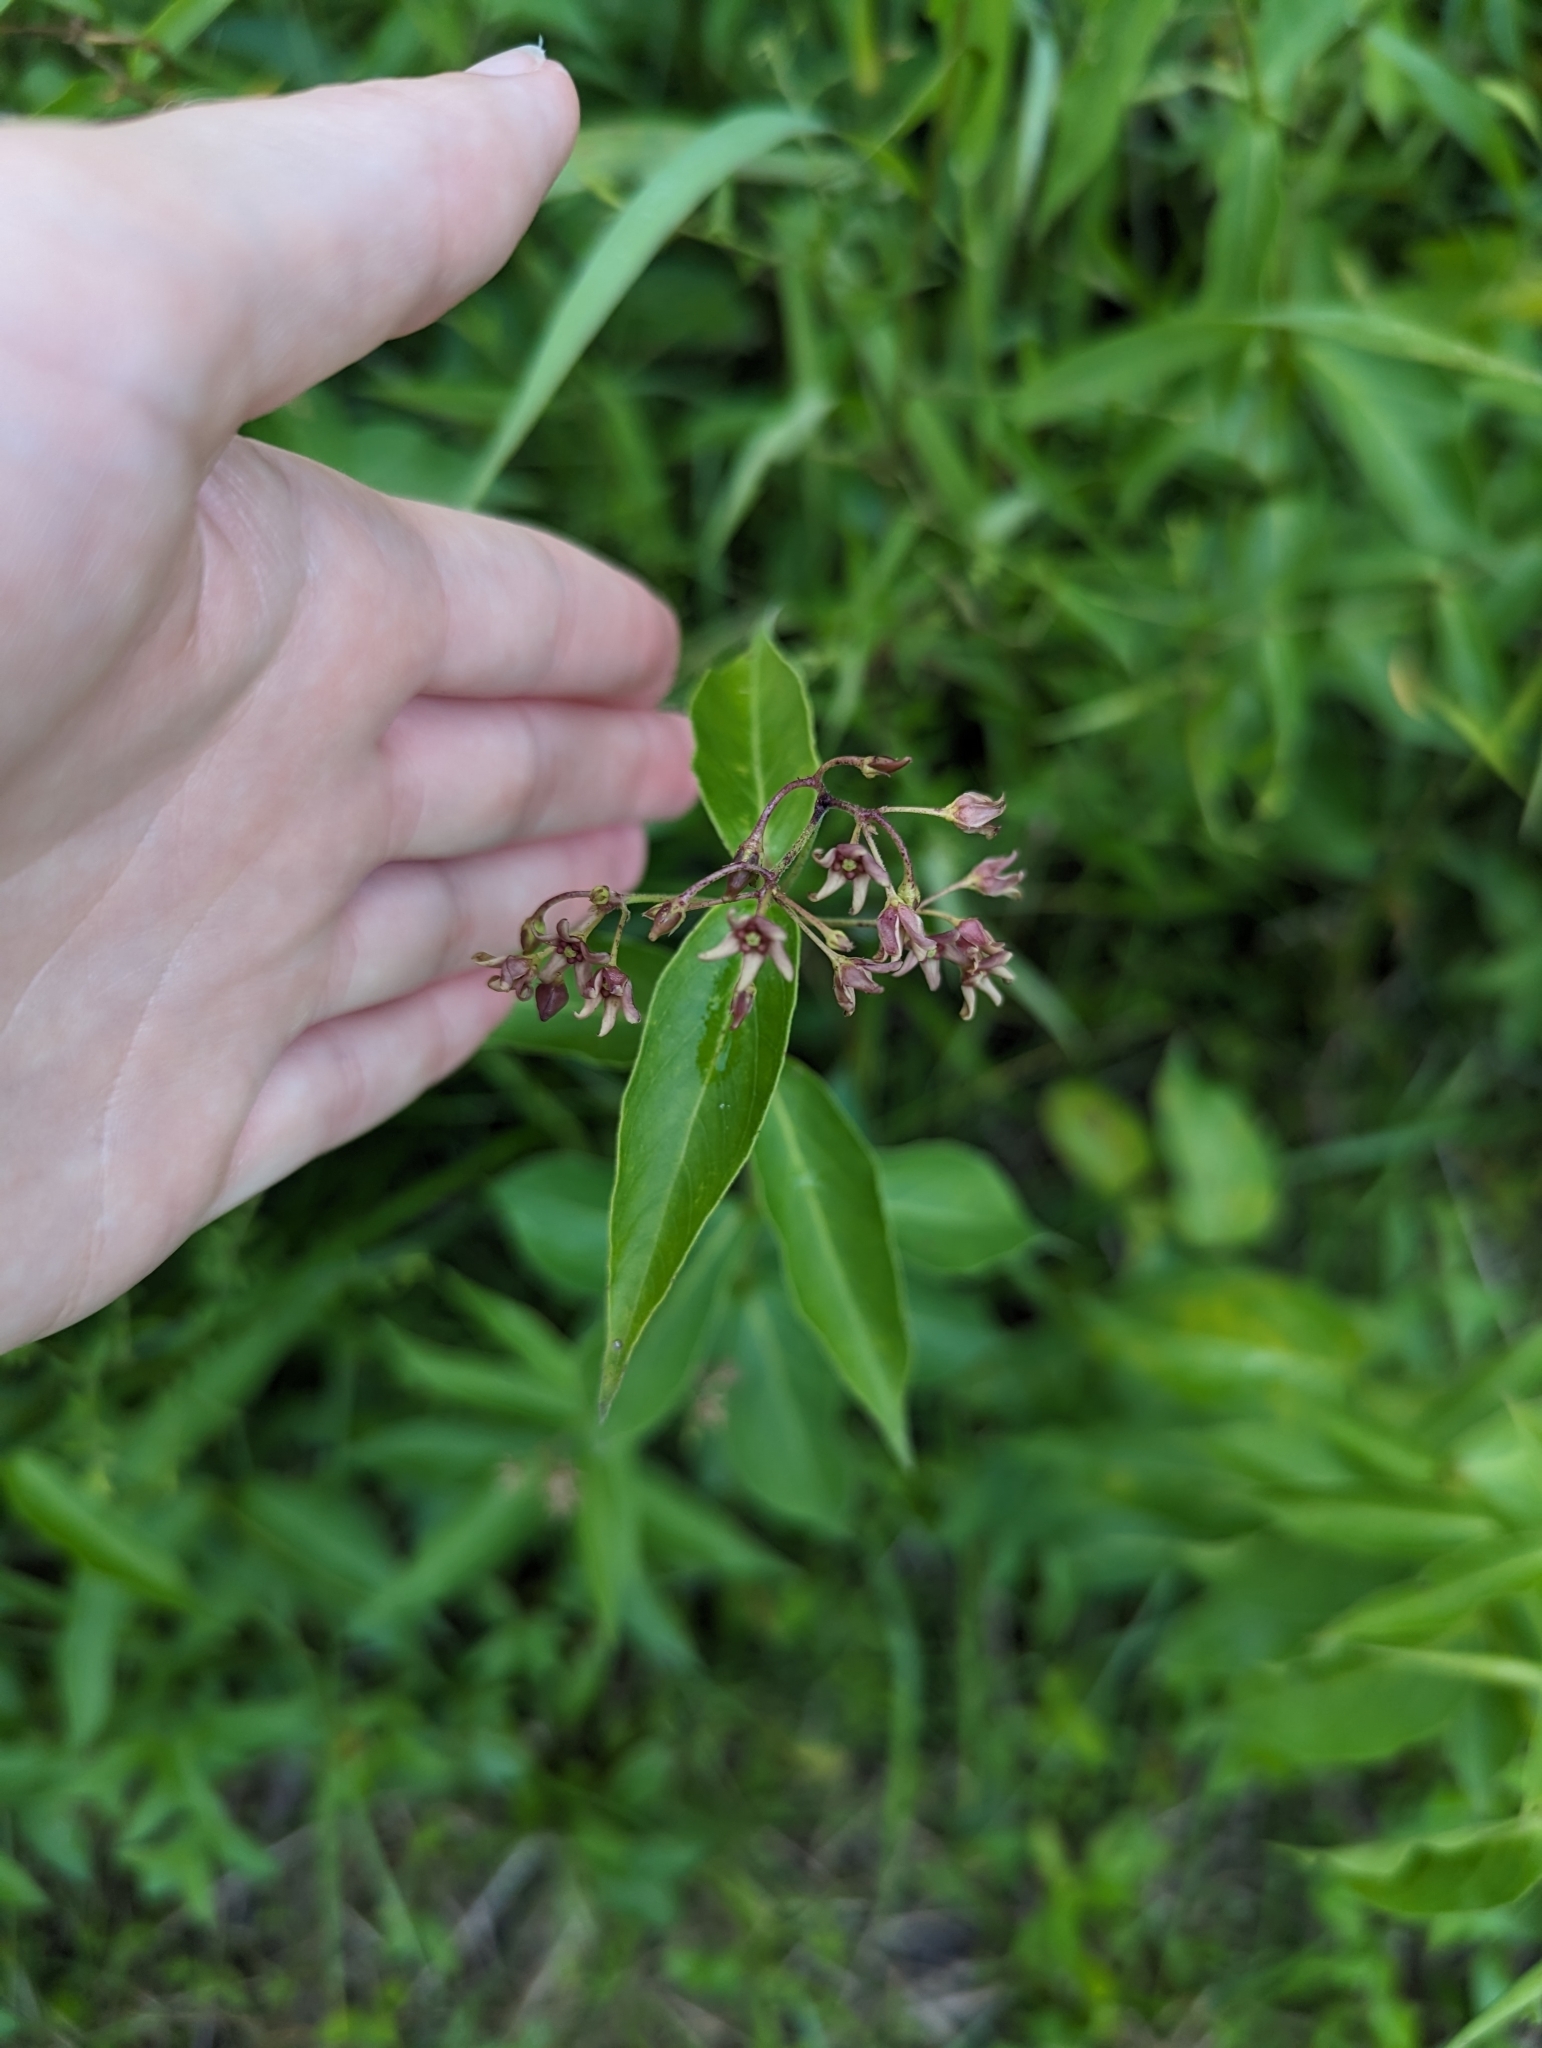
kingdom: Plantae
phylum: Tracheophyta
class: Magnoliopsida
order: Gentianales
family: Apocynaceae
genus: Vincetoxicum
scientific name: Vincetoxicum rossicum
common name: Dog-strangling vine
